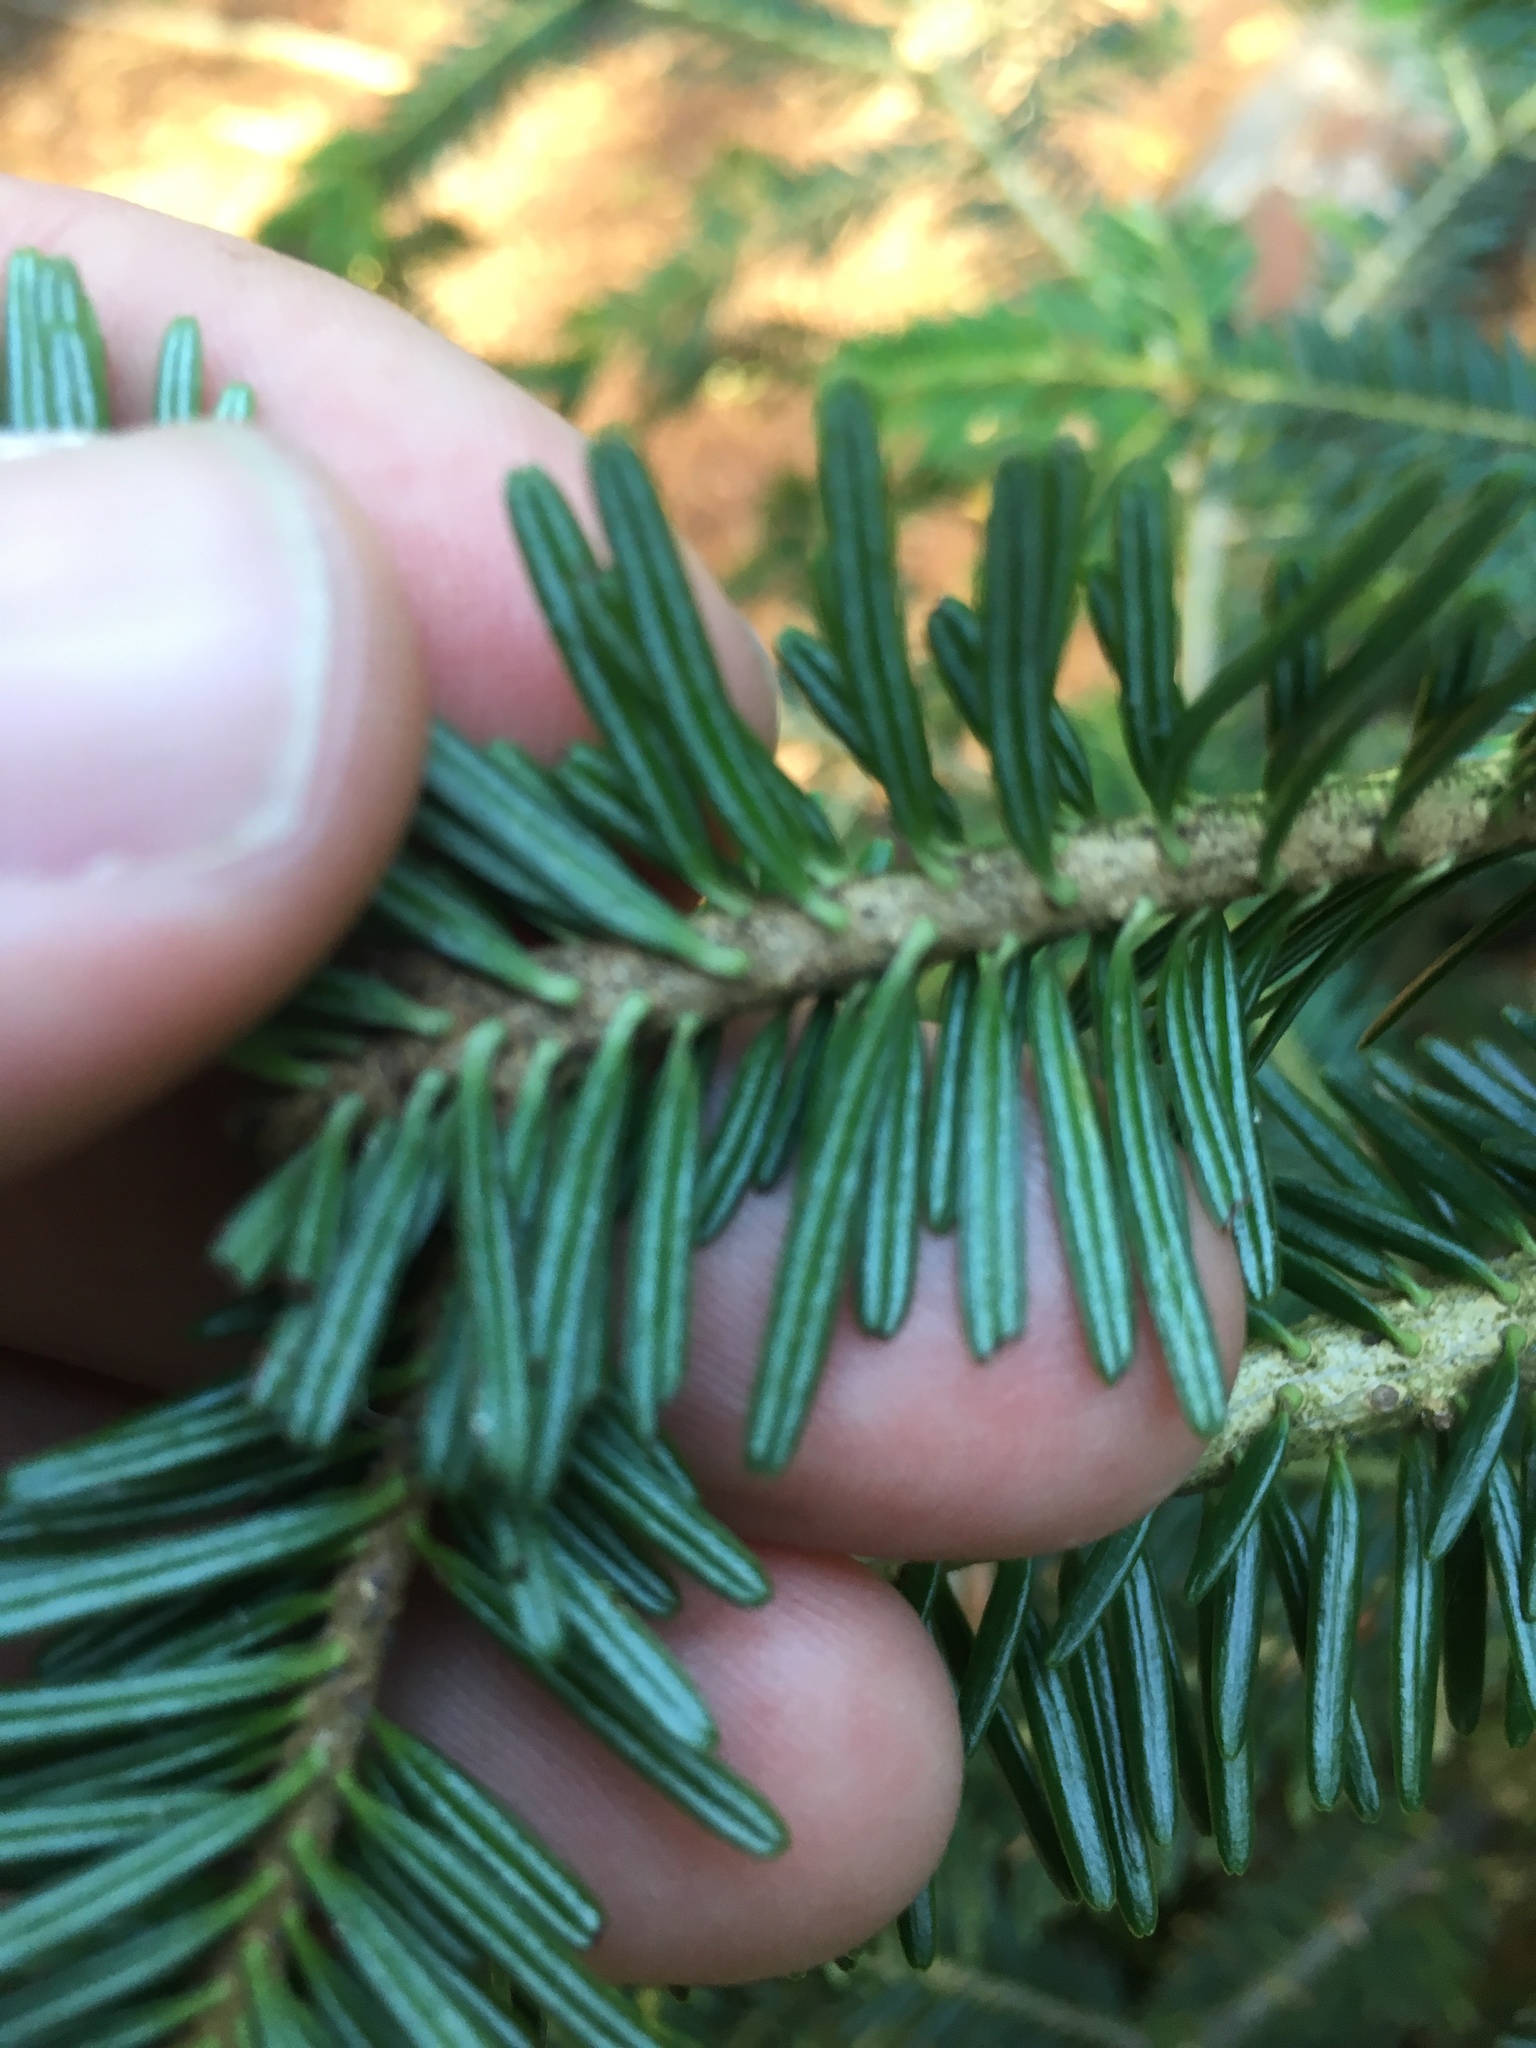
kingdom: Plantae
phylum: Tracheophyta
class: Pinopsida
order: Pinales
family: Pinaceae
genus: Abies
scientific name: Abies alba
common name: Silver fir
